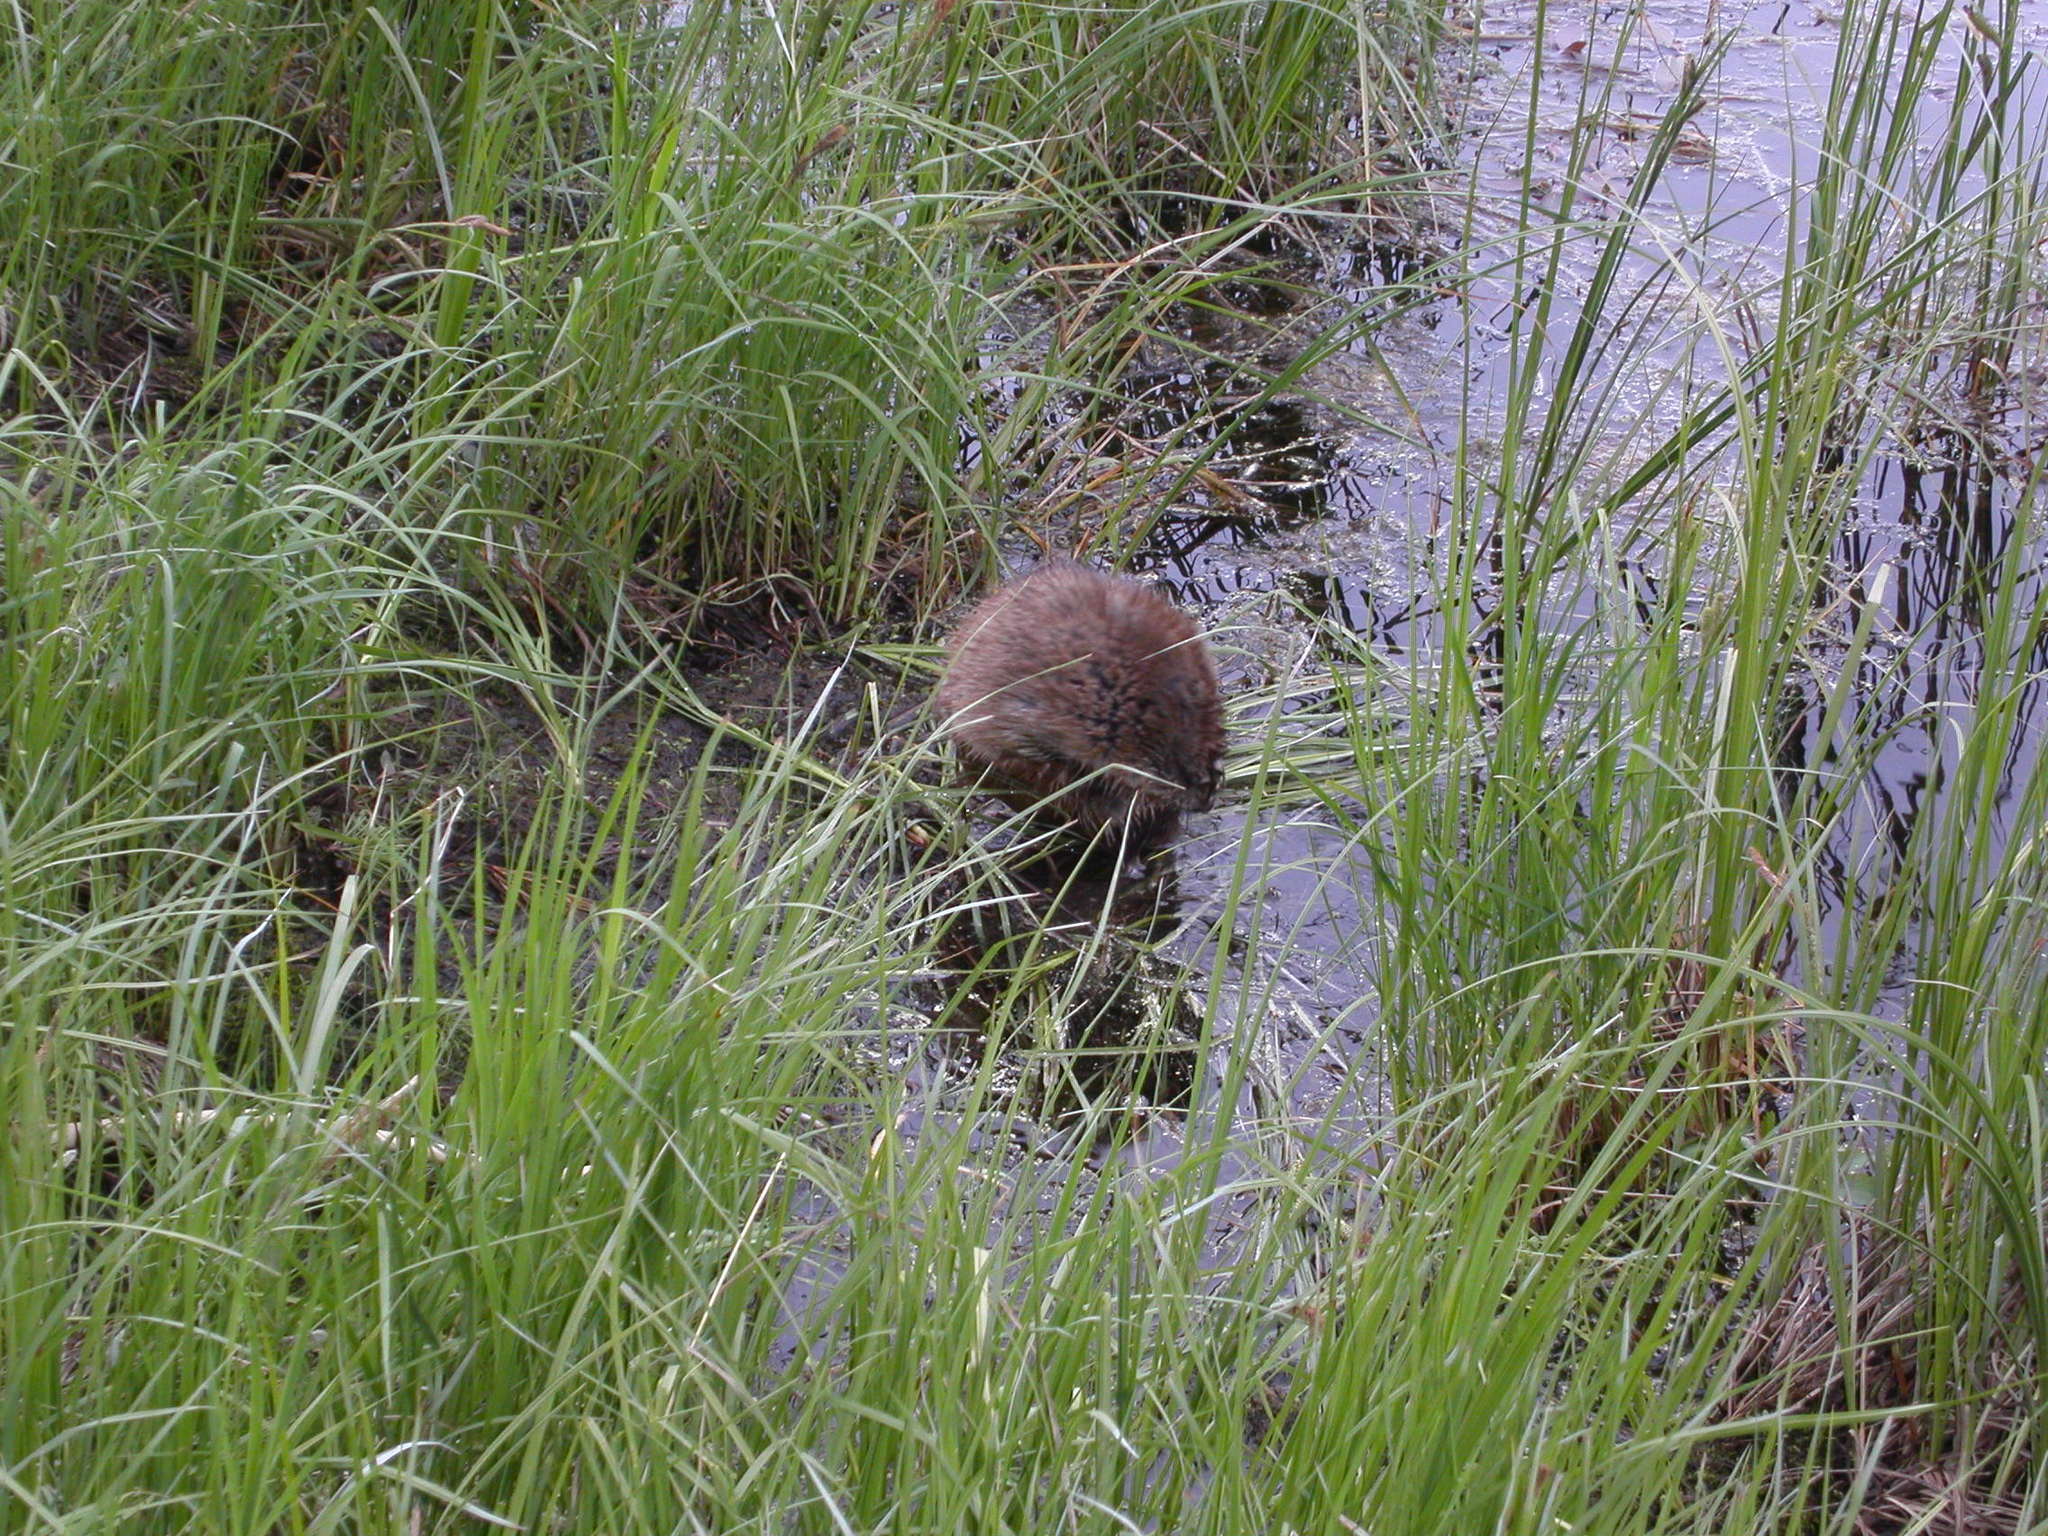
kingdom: Animalia
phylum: Chordata
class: Mammalia
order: Rodentia
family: Cricetidae
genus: Ondatra
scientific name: Ondatra zibethicus
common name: Muskrat
